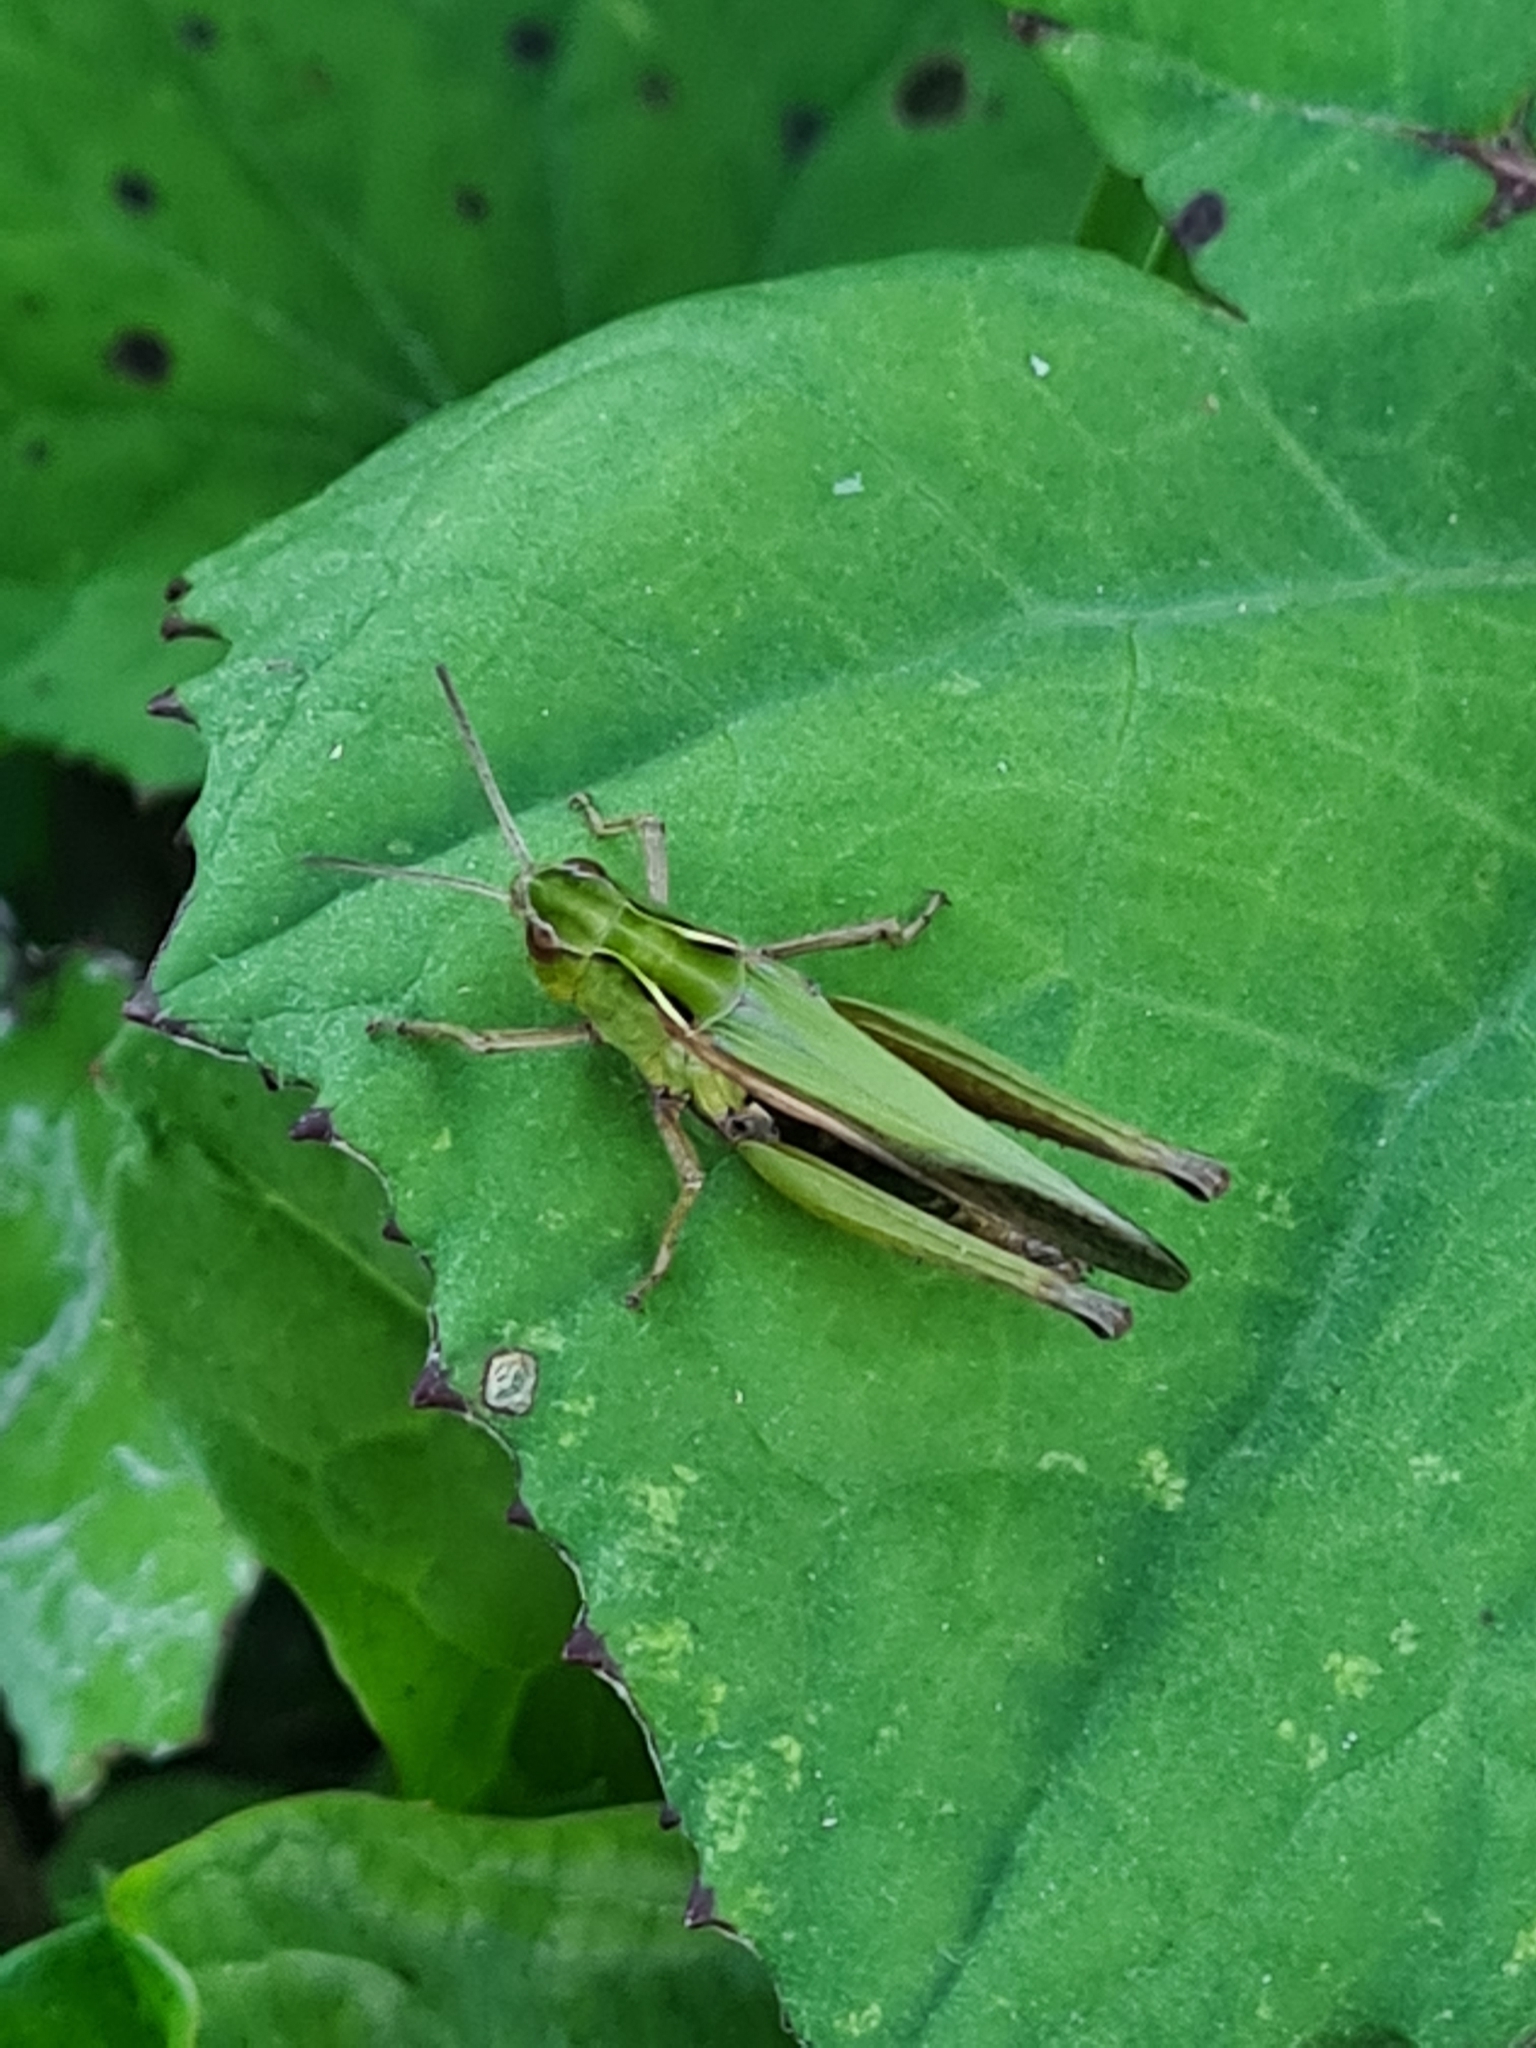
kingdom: Animalia
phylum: Arthropoda
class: Insecta
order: Orthoptera
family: Acrididae
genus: Omocestus
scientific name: Omocestus viridulus
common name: Common green grasshopper
